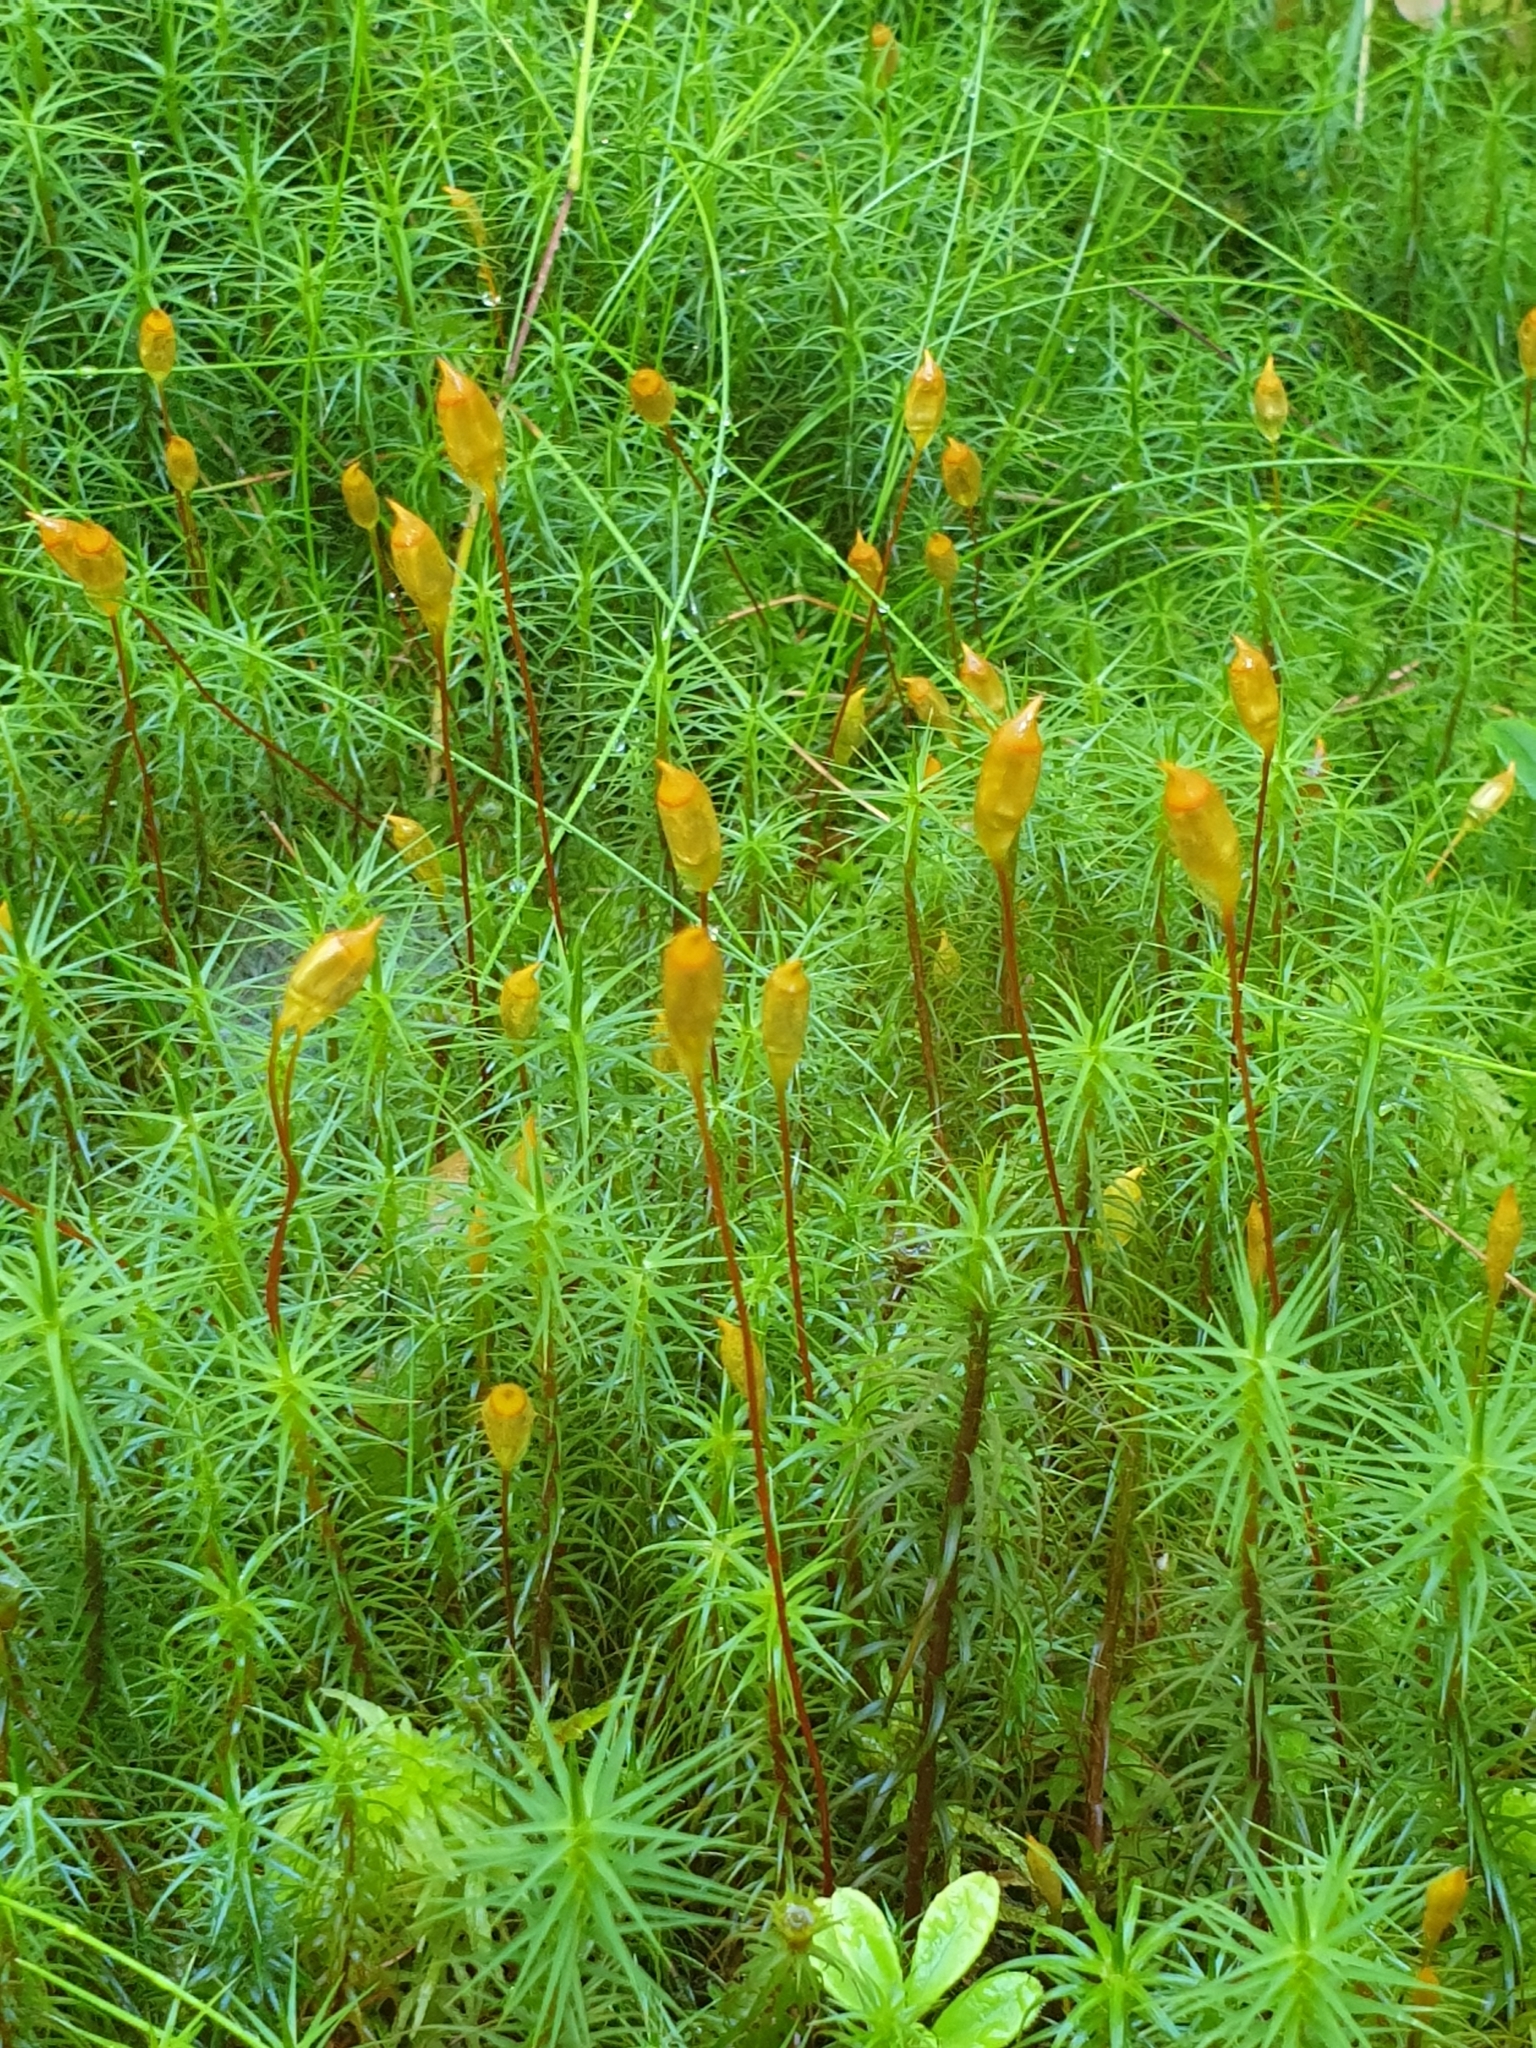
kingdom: Plantae
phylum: Bryophyta
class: Polytrichopsida
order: Polytrichales
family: Polytrichaceae
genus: Polytrichum
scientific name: Polytrichum commune
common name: Common haircap
